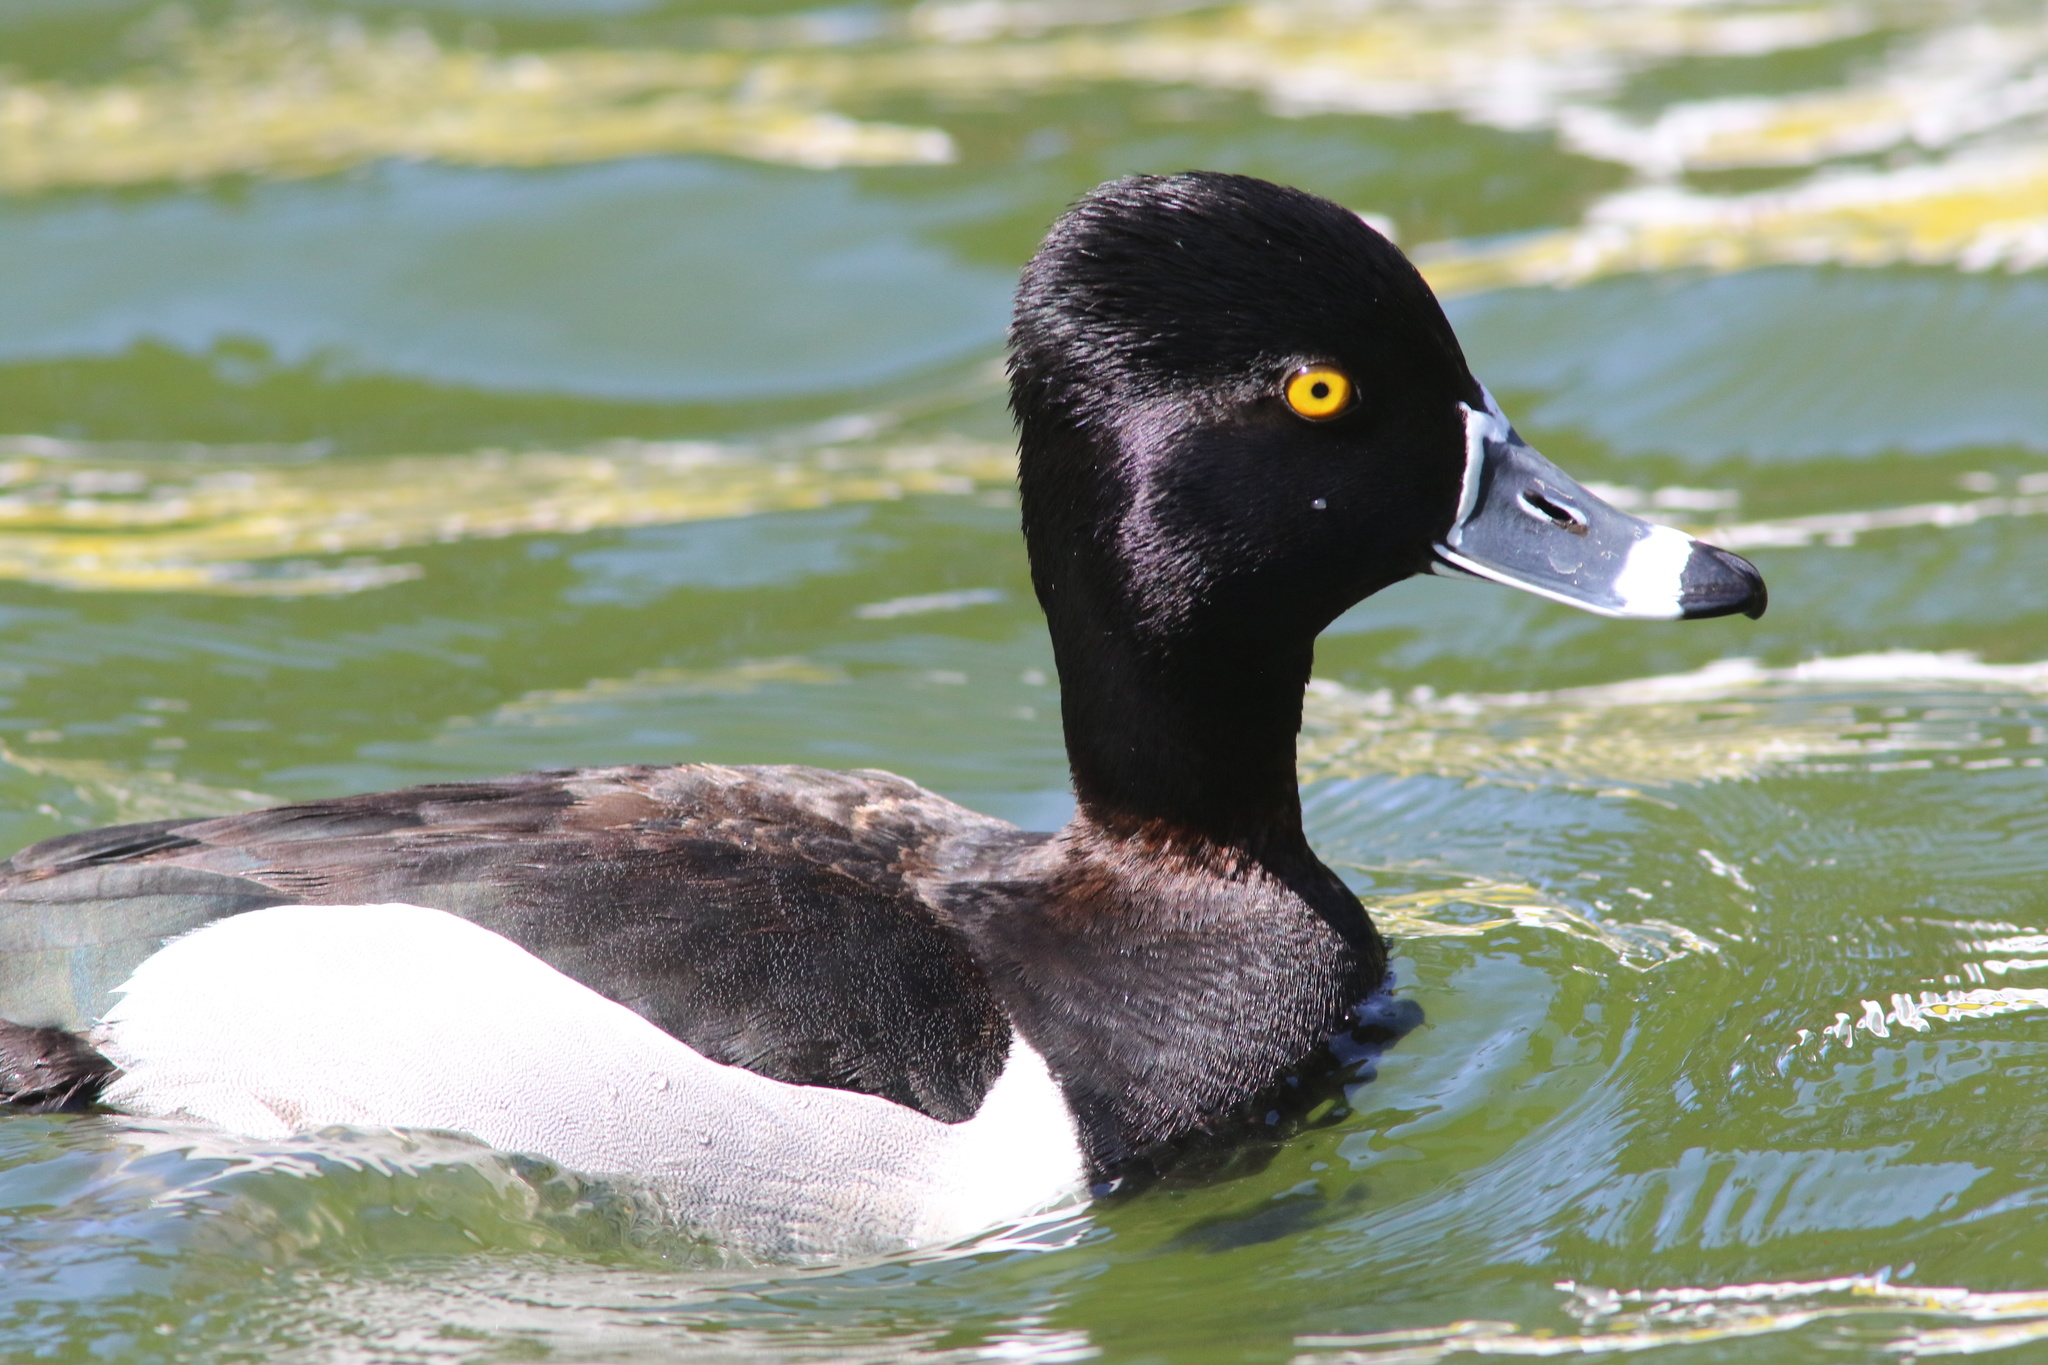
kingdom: Animalia
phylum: Chordata
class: Aves
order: Anseriformes
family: Anatidae
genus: Aythya
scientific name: Aythya collaris
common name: Ring-necked duck
